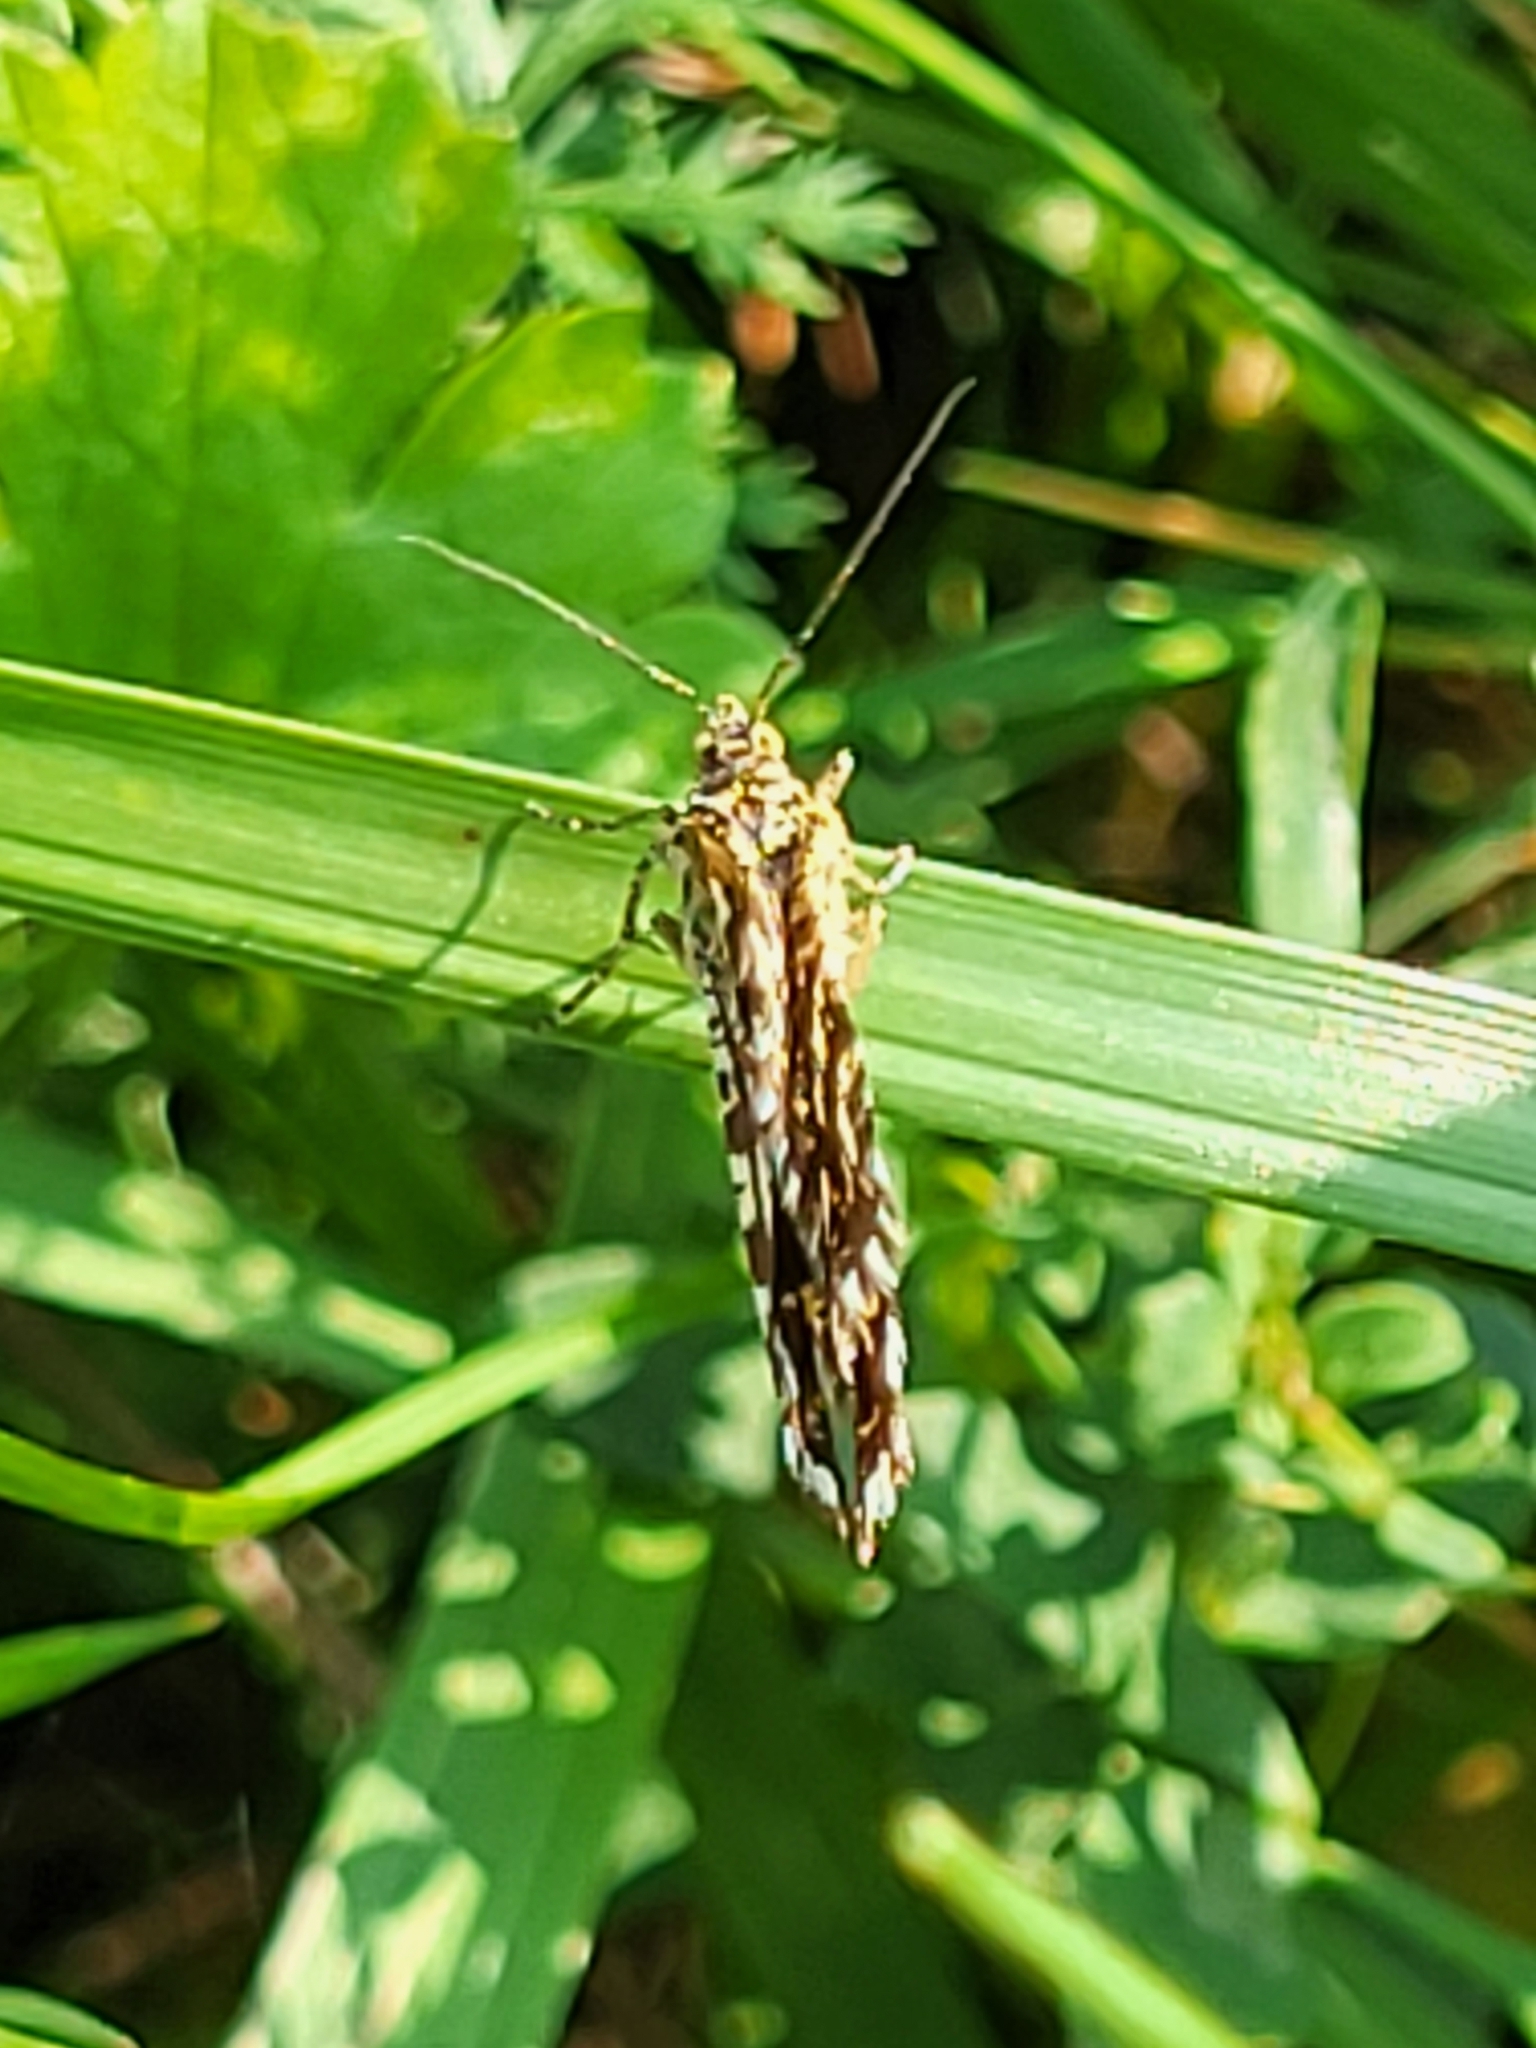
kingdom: Animalia
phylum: Arthropoda
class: Insecta
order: Lepidoptera
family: Geometridae
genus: Chiasmia
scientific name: Chiasmia clathrata
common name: Latticed heath
